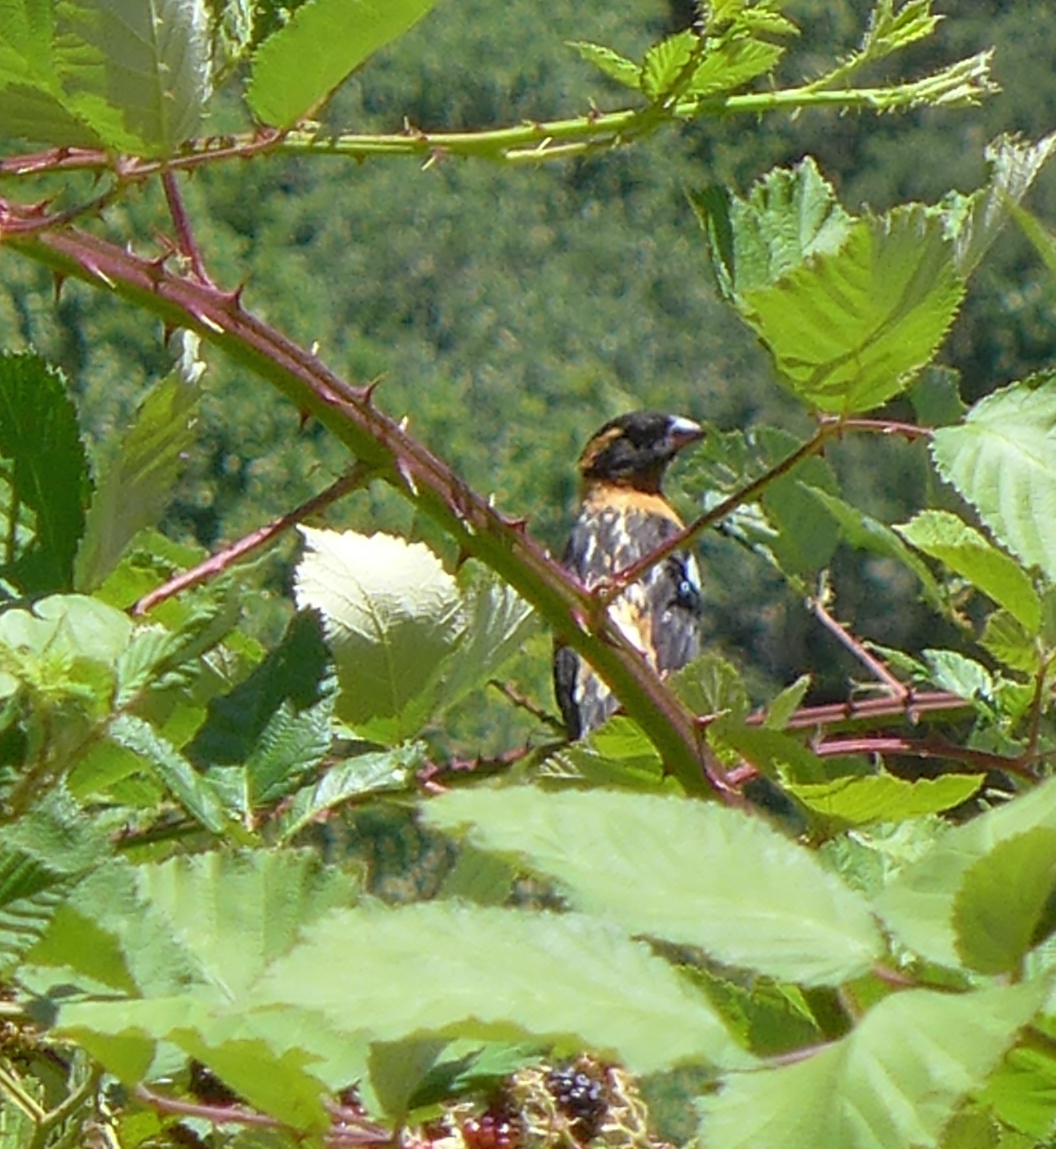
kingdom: Animalia
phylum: Chordata
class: Aves
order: Passeriformes
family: Cardinalidae
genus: Pheucticus
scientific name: Pheucticus melanocephalus
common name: Black-headed grosbeak
